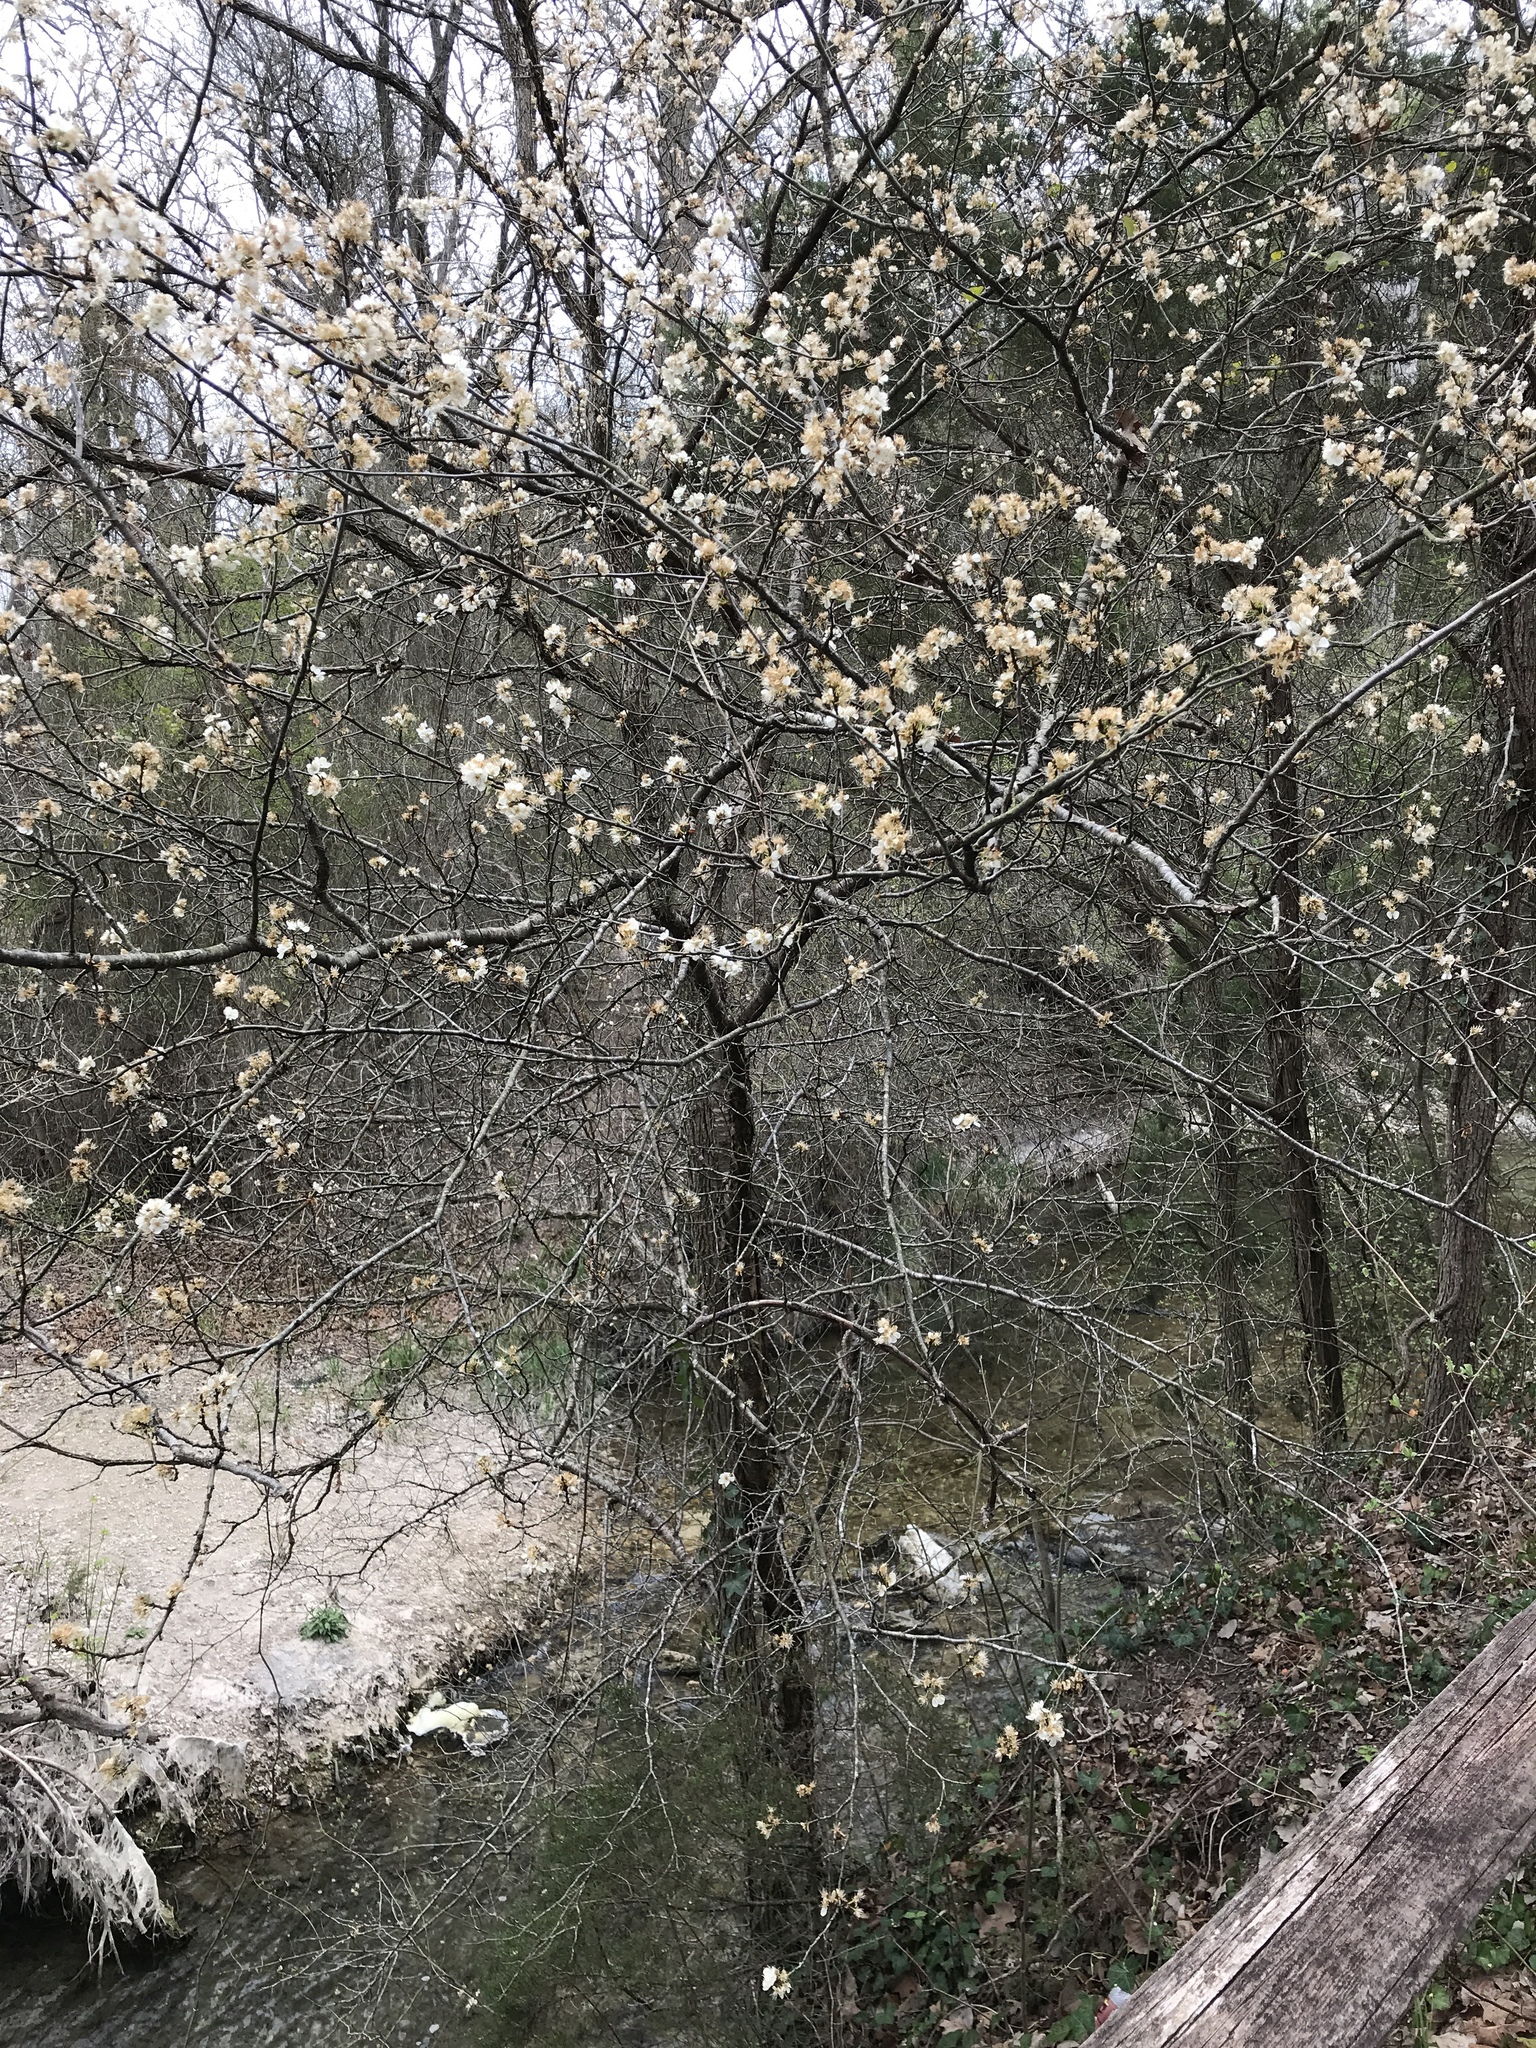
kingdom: Plantae
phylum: Tracheophyta
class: Magnoliopsida
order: Rosales
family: Rosaceae
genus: Prunus
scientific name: Prunus mexicana
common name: Mexican plum
